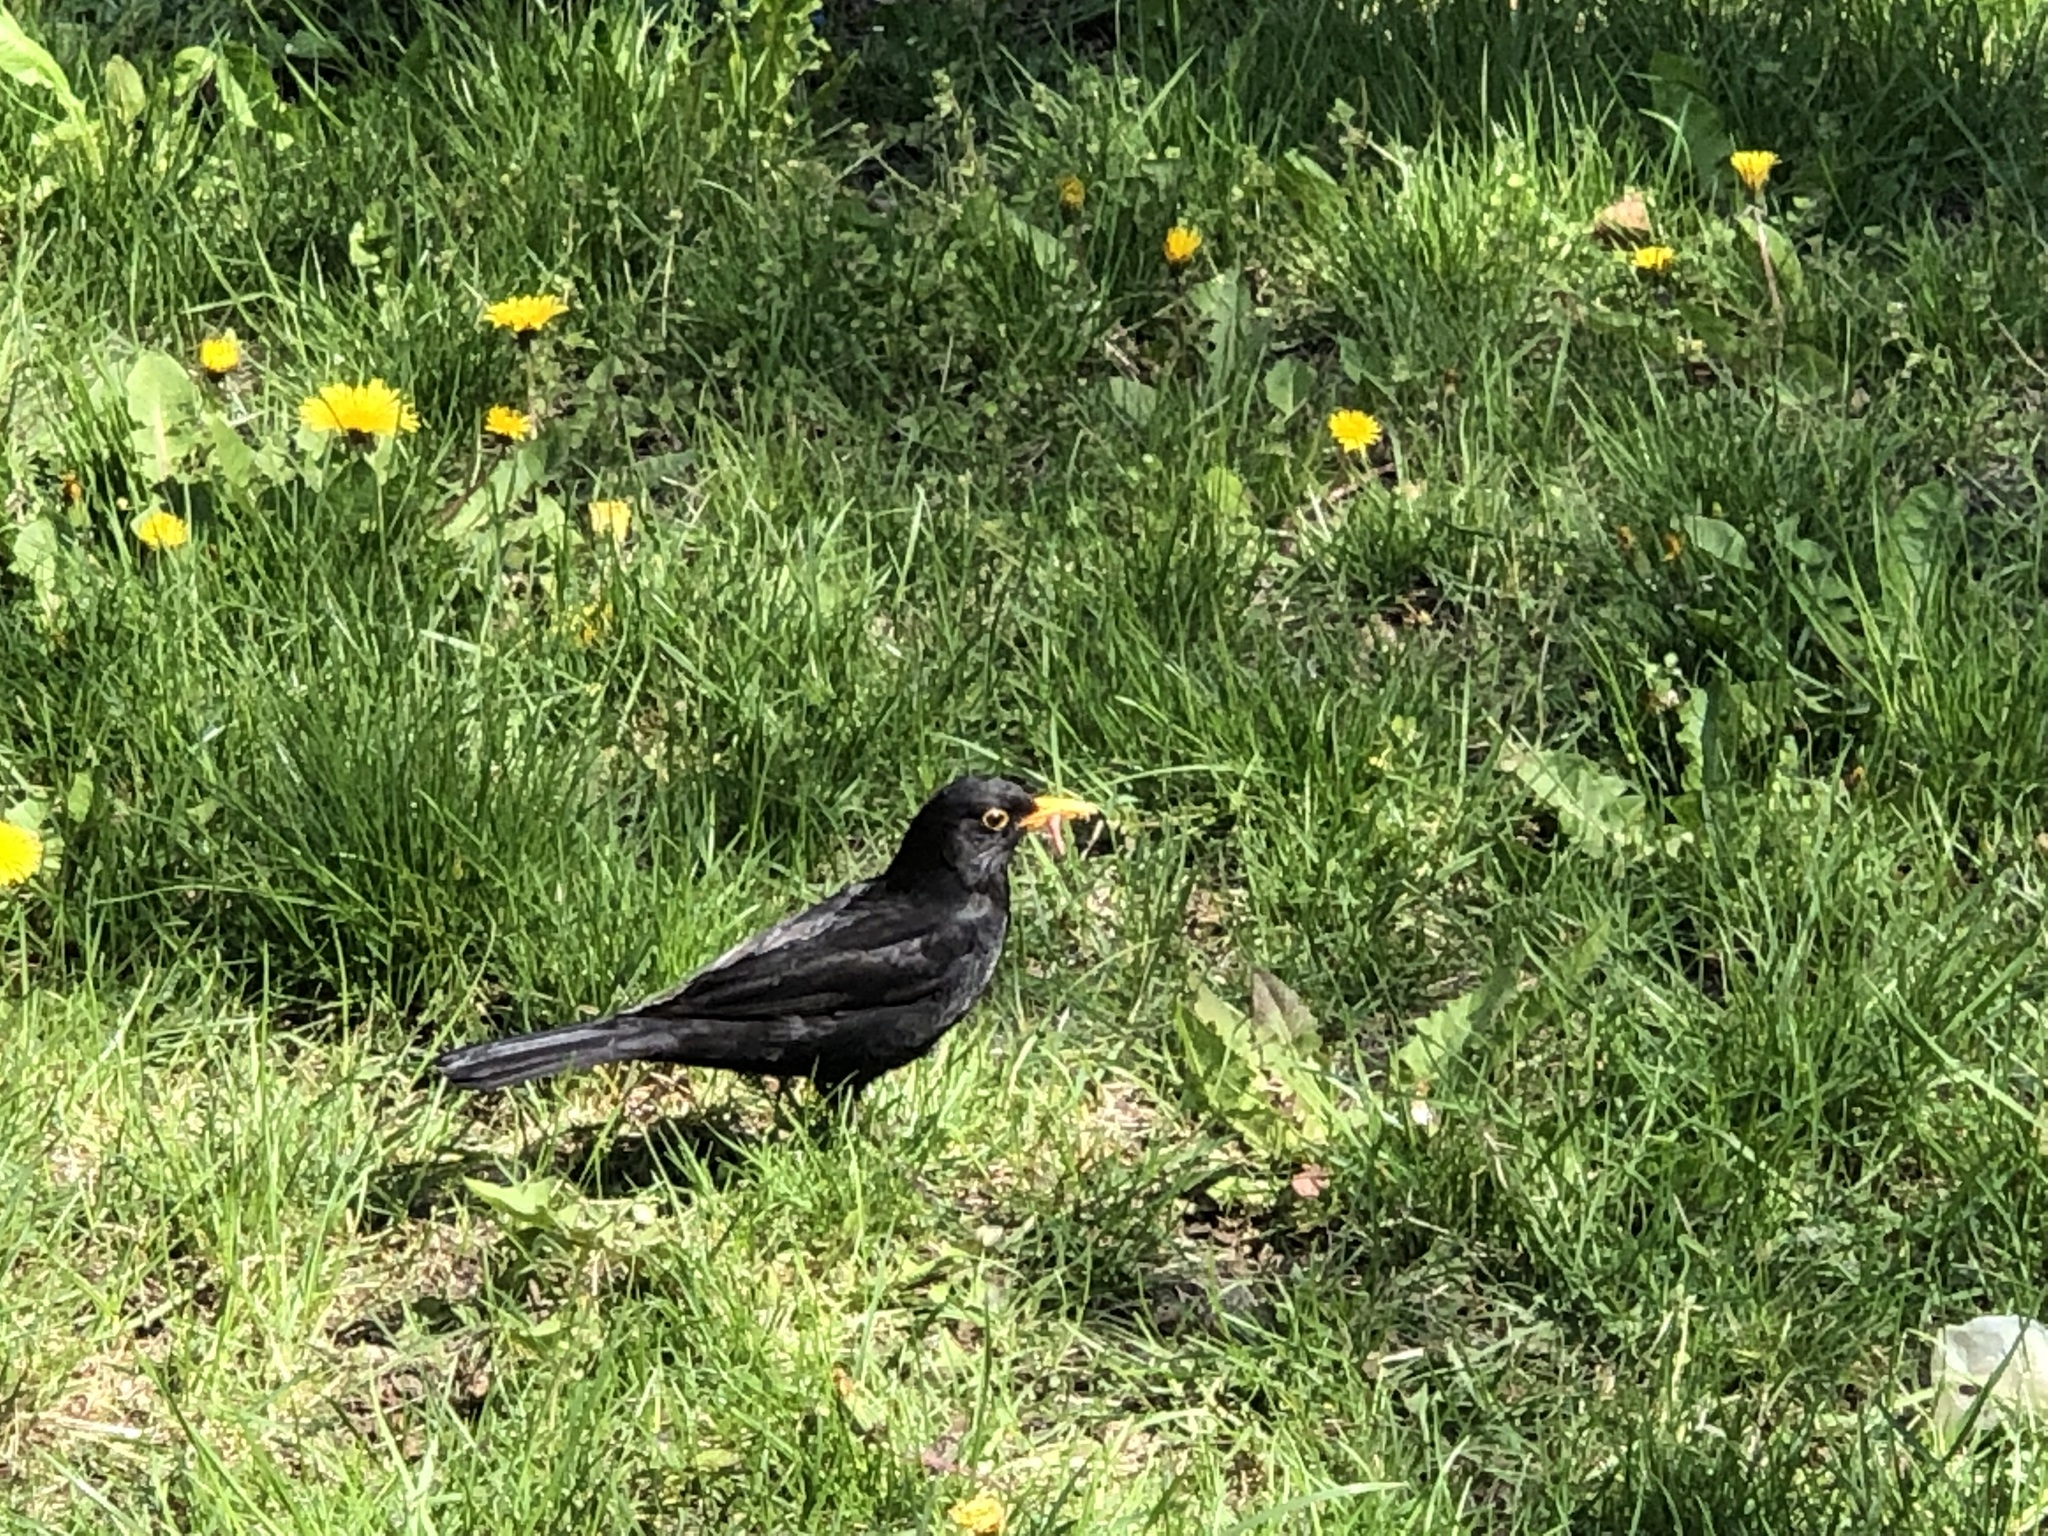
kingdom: Animalia
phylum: Chordata
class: Aves
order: Passeriformes
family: Turdidae
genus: Turdus
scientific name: Turdus merula
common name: Common blackbird
